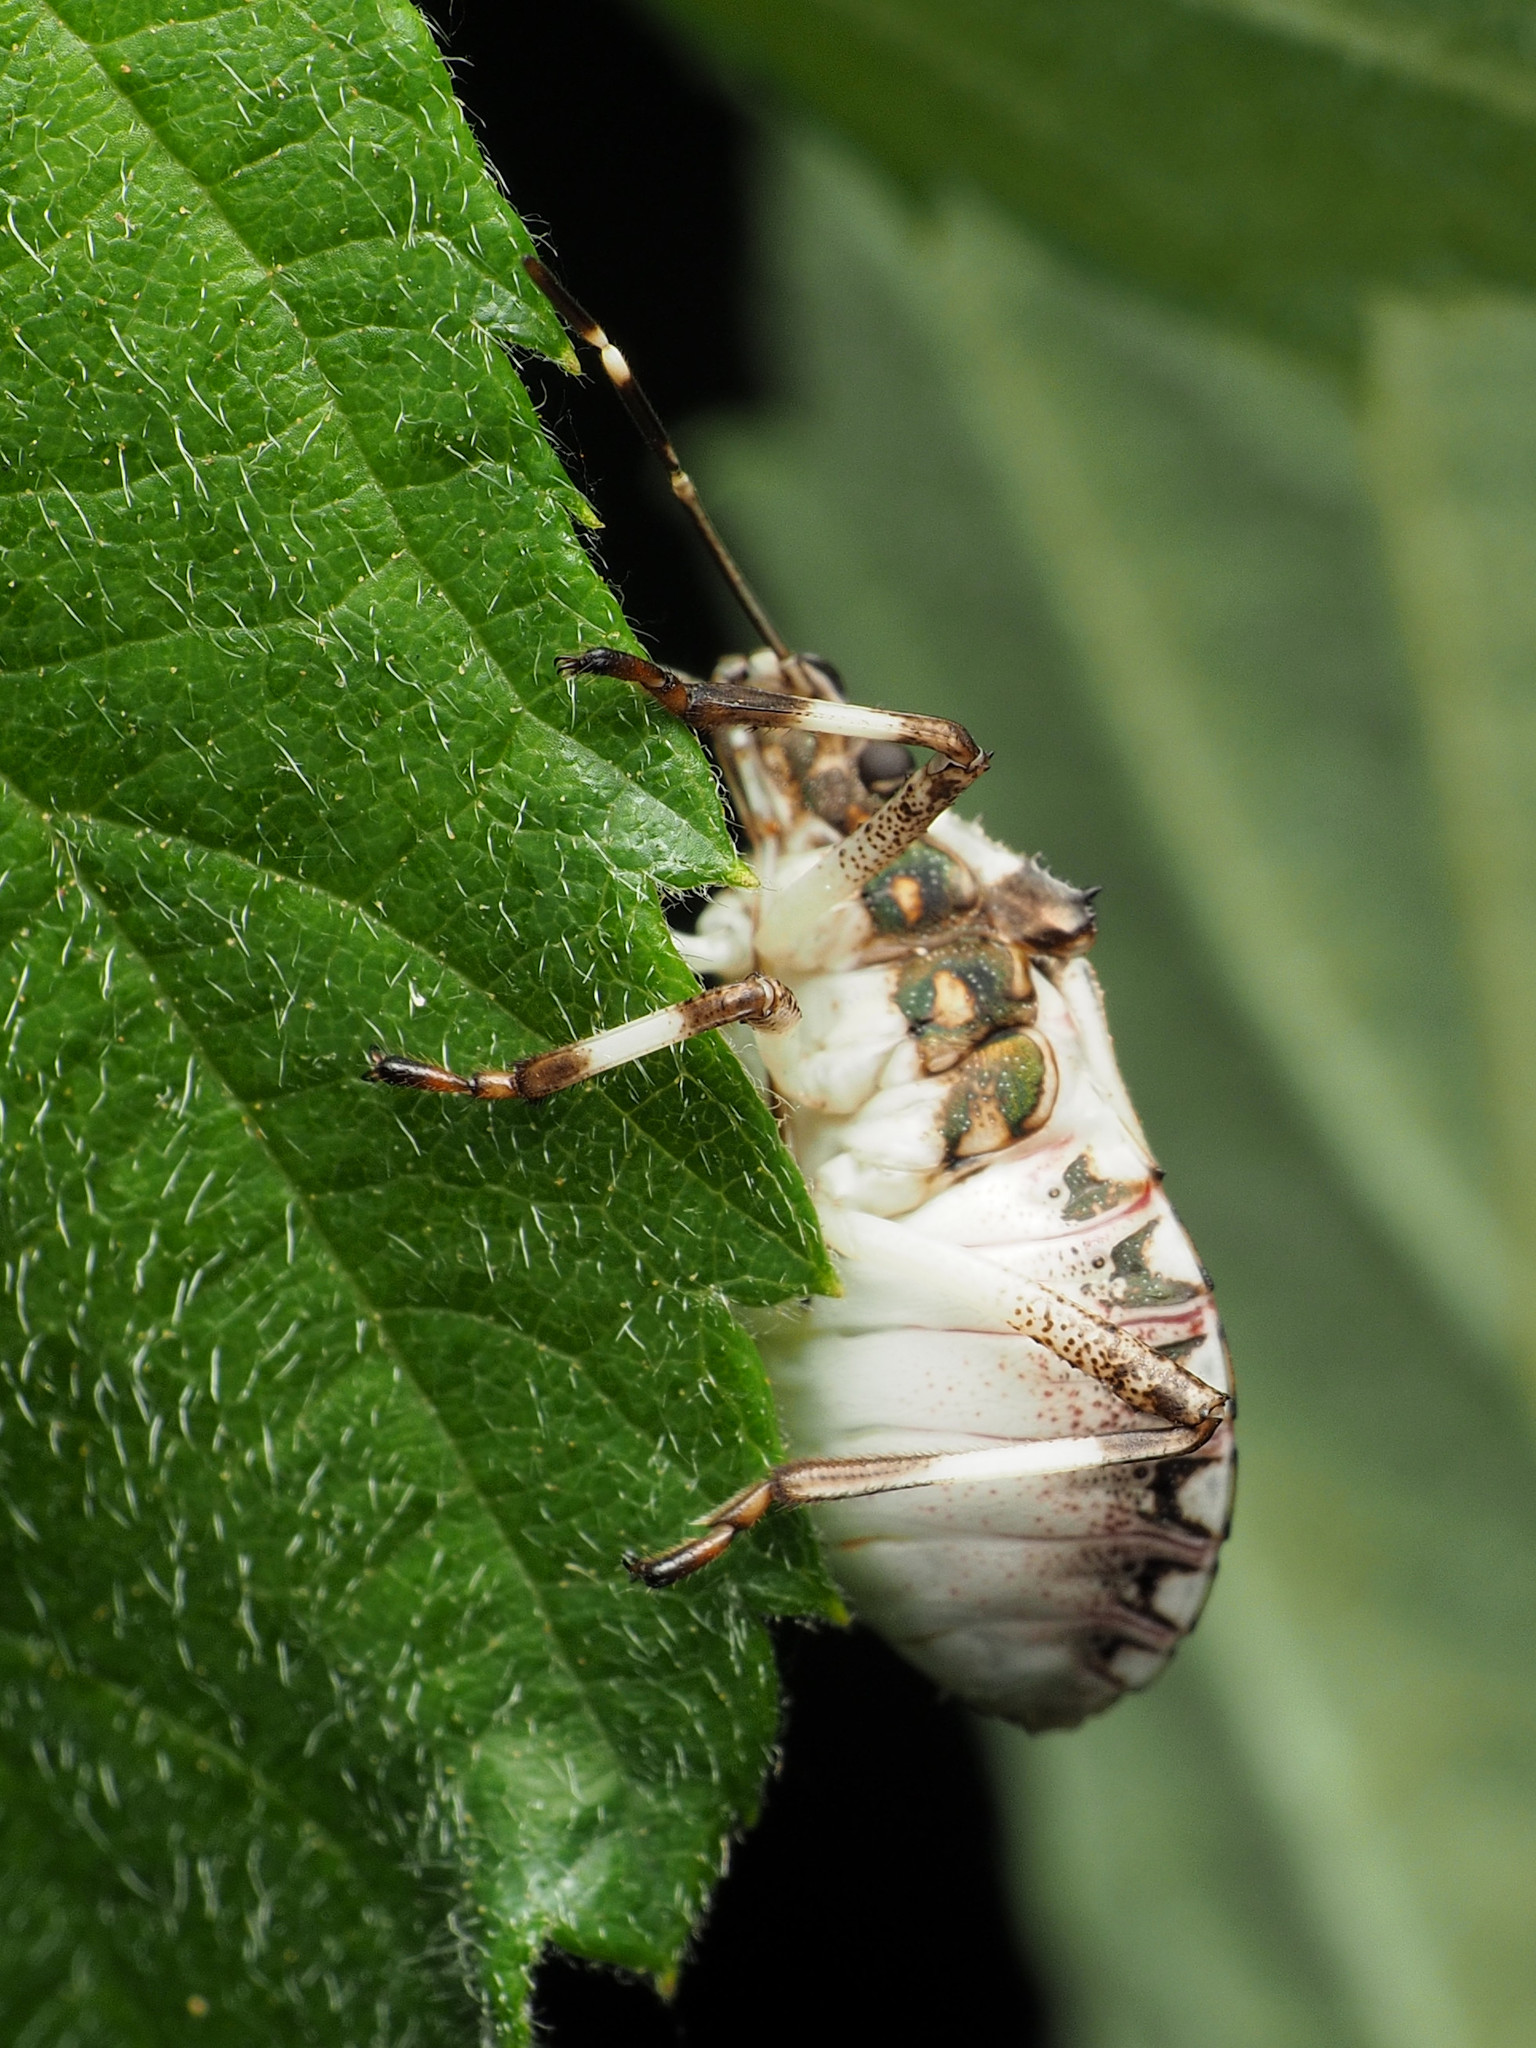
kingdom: Animalia
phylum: Arthropoda
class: Insecta
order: Hemiptera
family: Pentatomidae
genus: Halyomorpha
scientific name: Halyomorpha halys
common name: Brown marmorated stink bug
